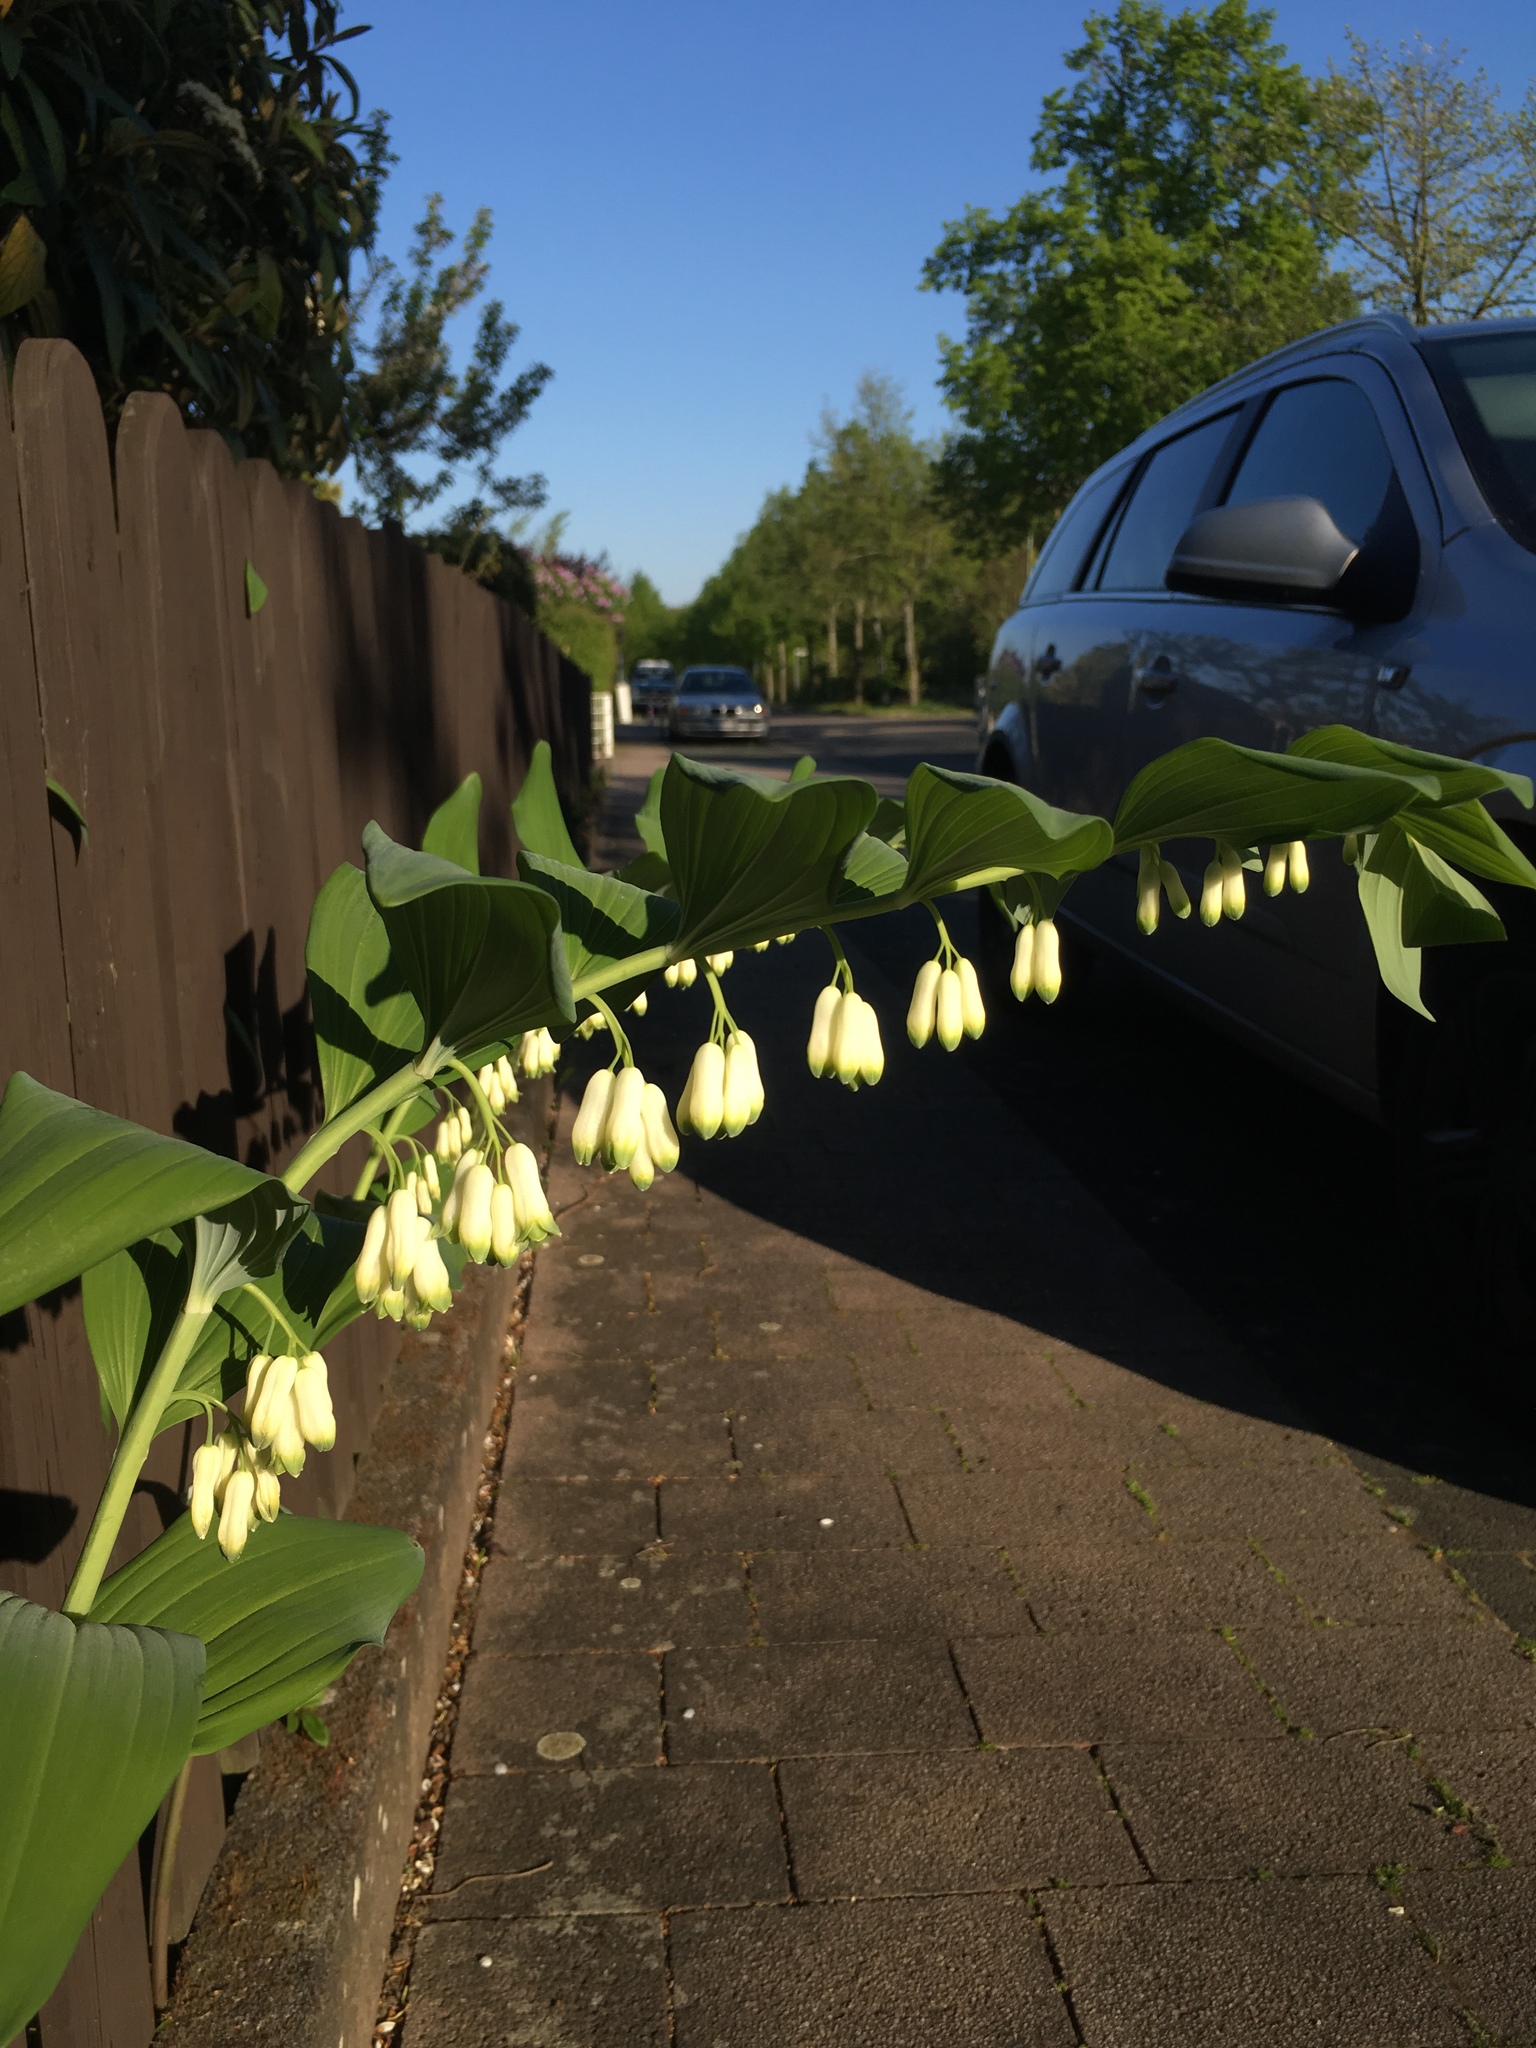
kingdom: Plantae
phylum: Tracheophyta
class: Liliopsida
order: Asparagales
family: Asparagaceae
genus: Polygonatum
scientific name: Polygonatum multiflorum
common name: Solomon's-seal
